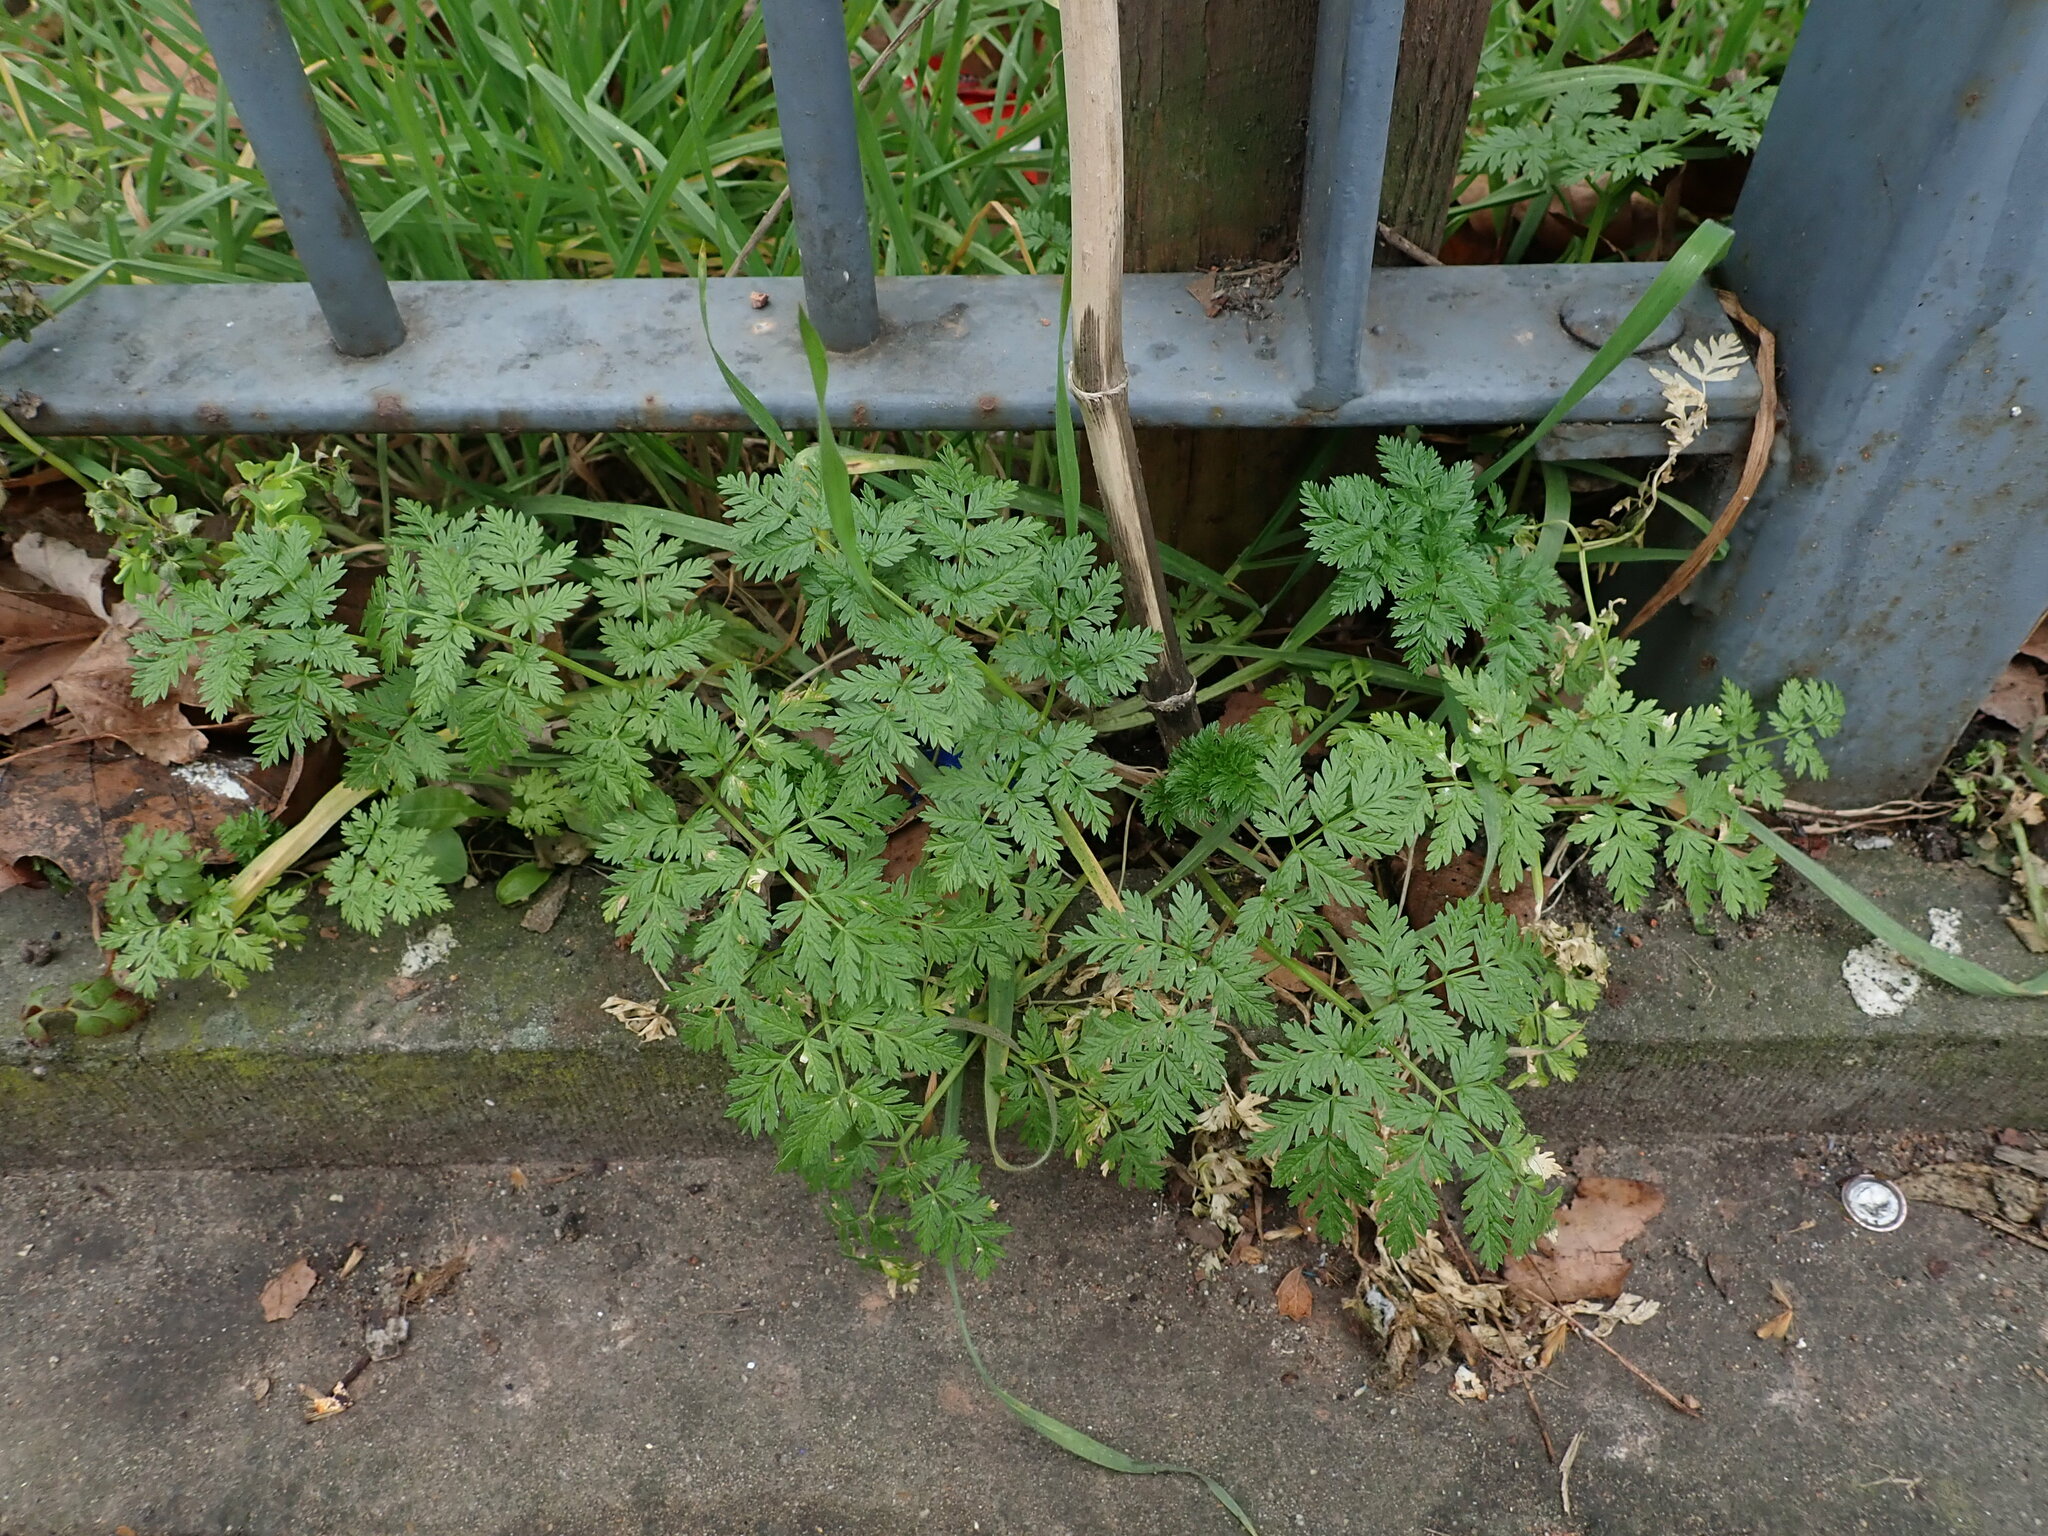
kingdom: Plantae
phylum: Tracheophyta
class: Magnoliopsida
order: Apiales
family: Apiaceae
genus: Conium
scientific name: Conium maculatum
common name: Hemlock
